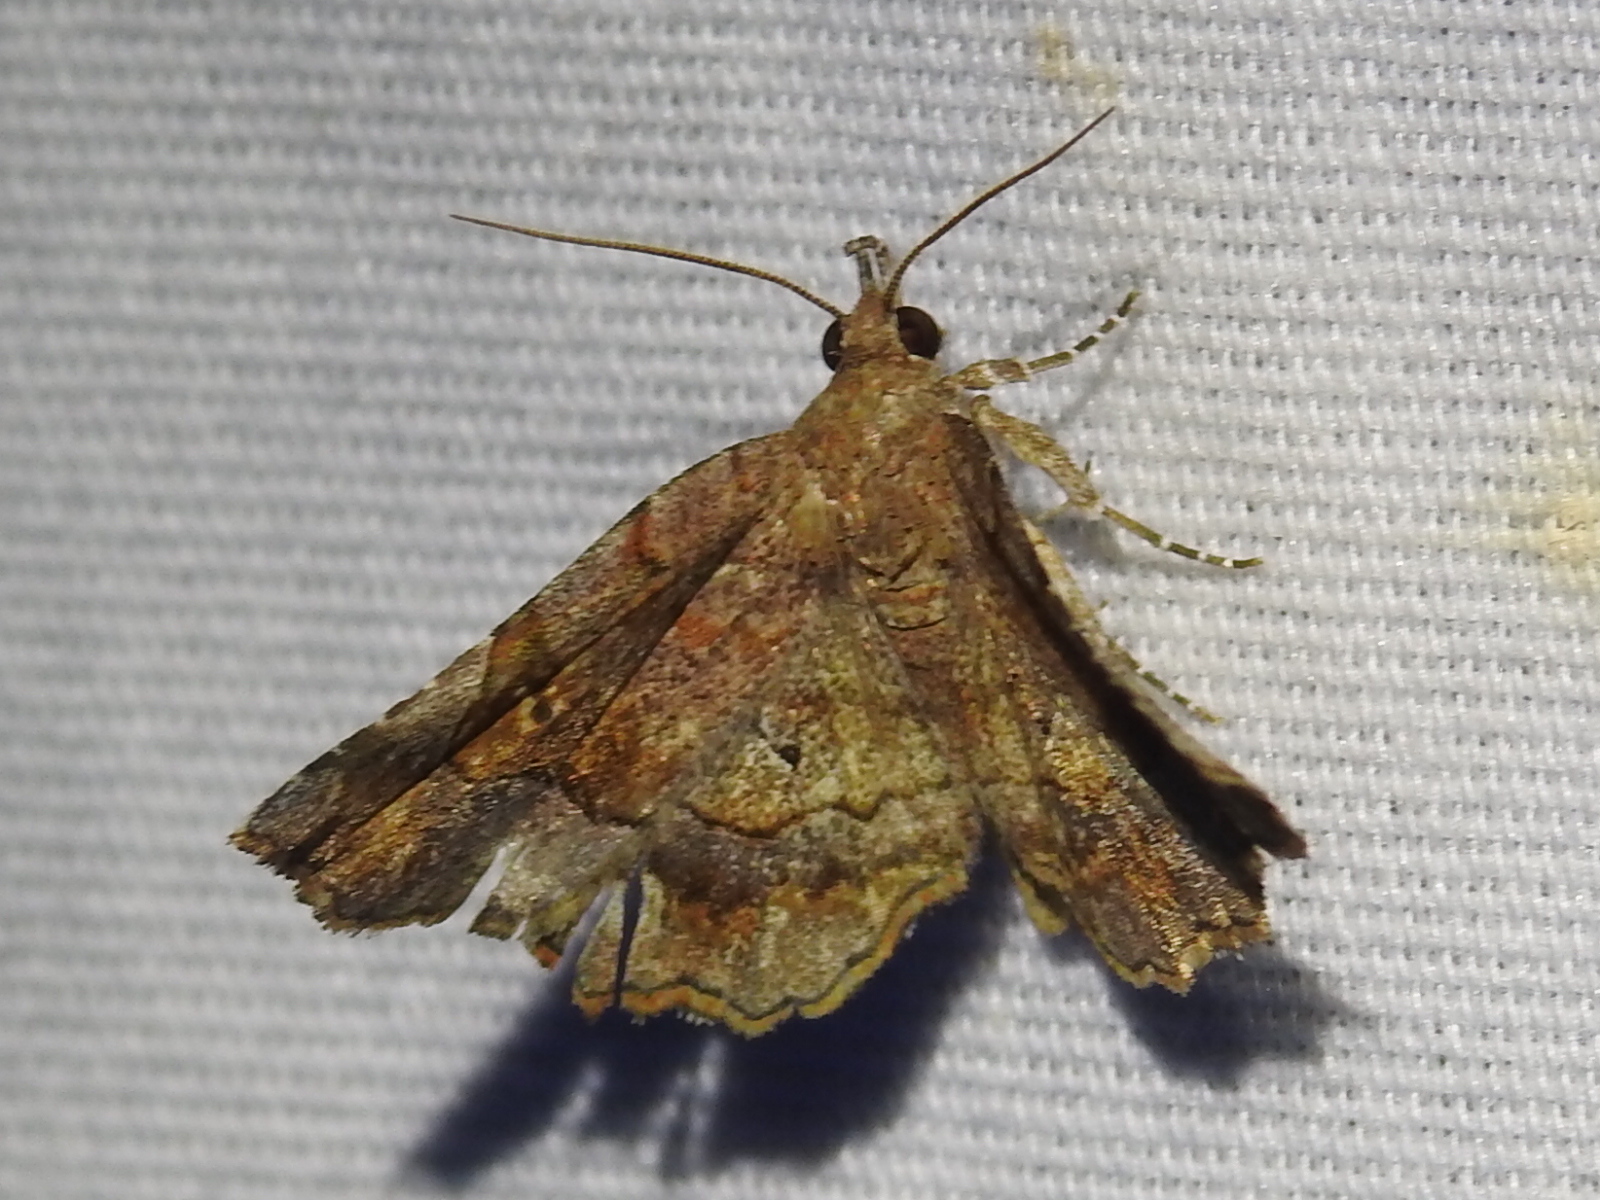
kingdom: Animalia
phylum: Arthropoda
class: Insecta
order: Lepidoptera
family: Erebidae
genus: Pangrapta
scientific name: Pangrapta decoralis
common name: Decorated owlet
